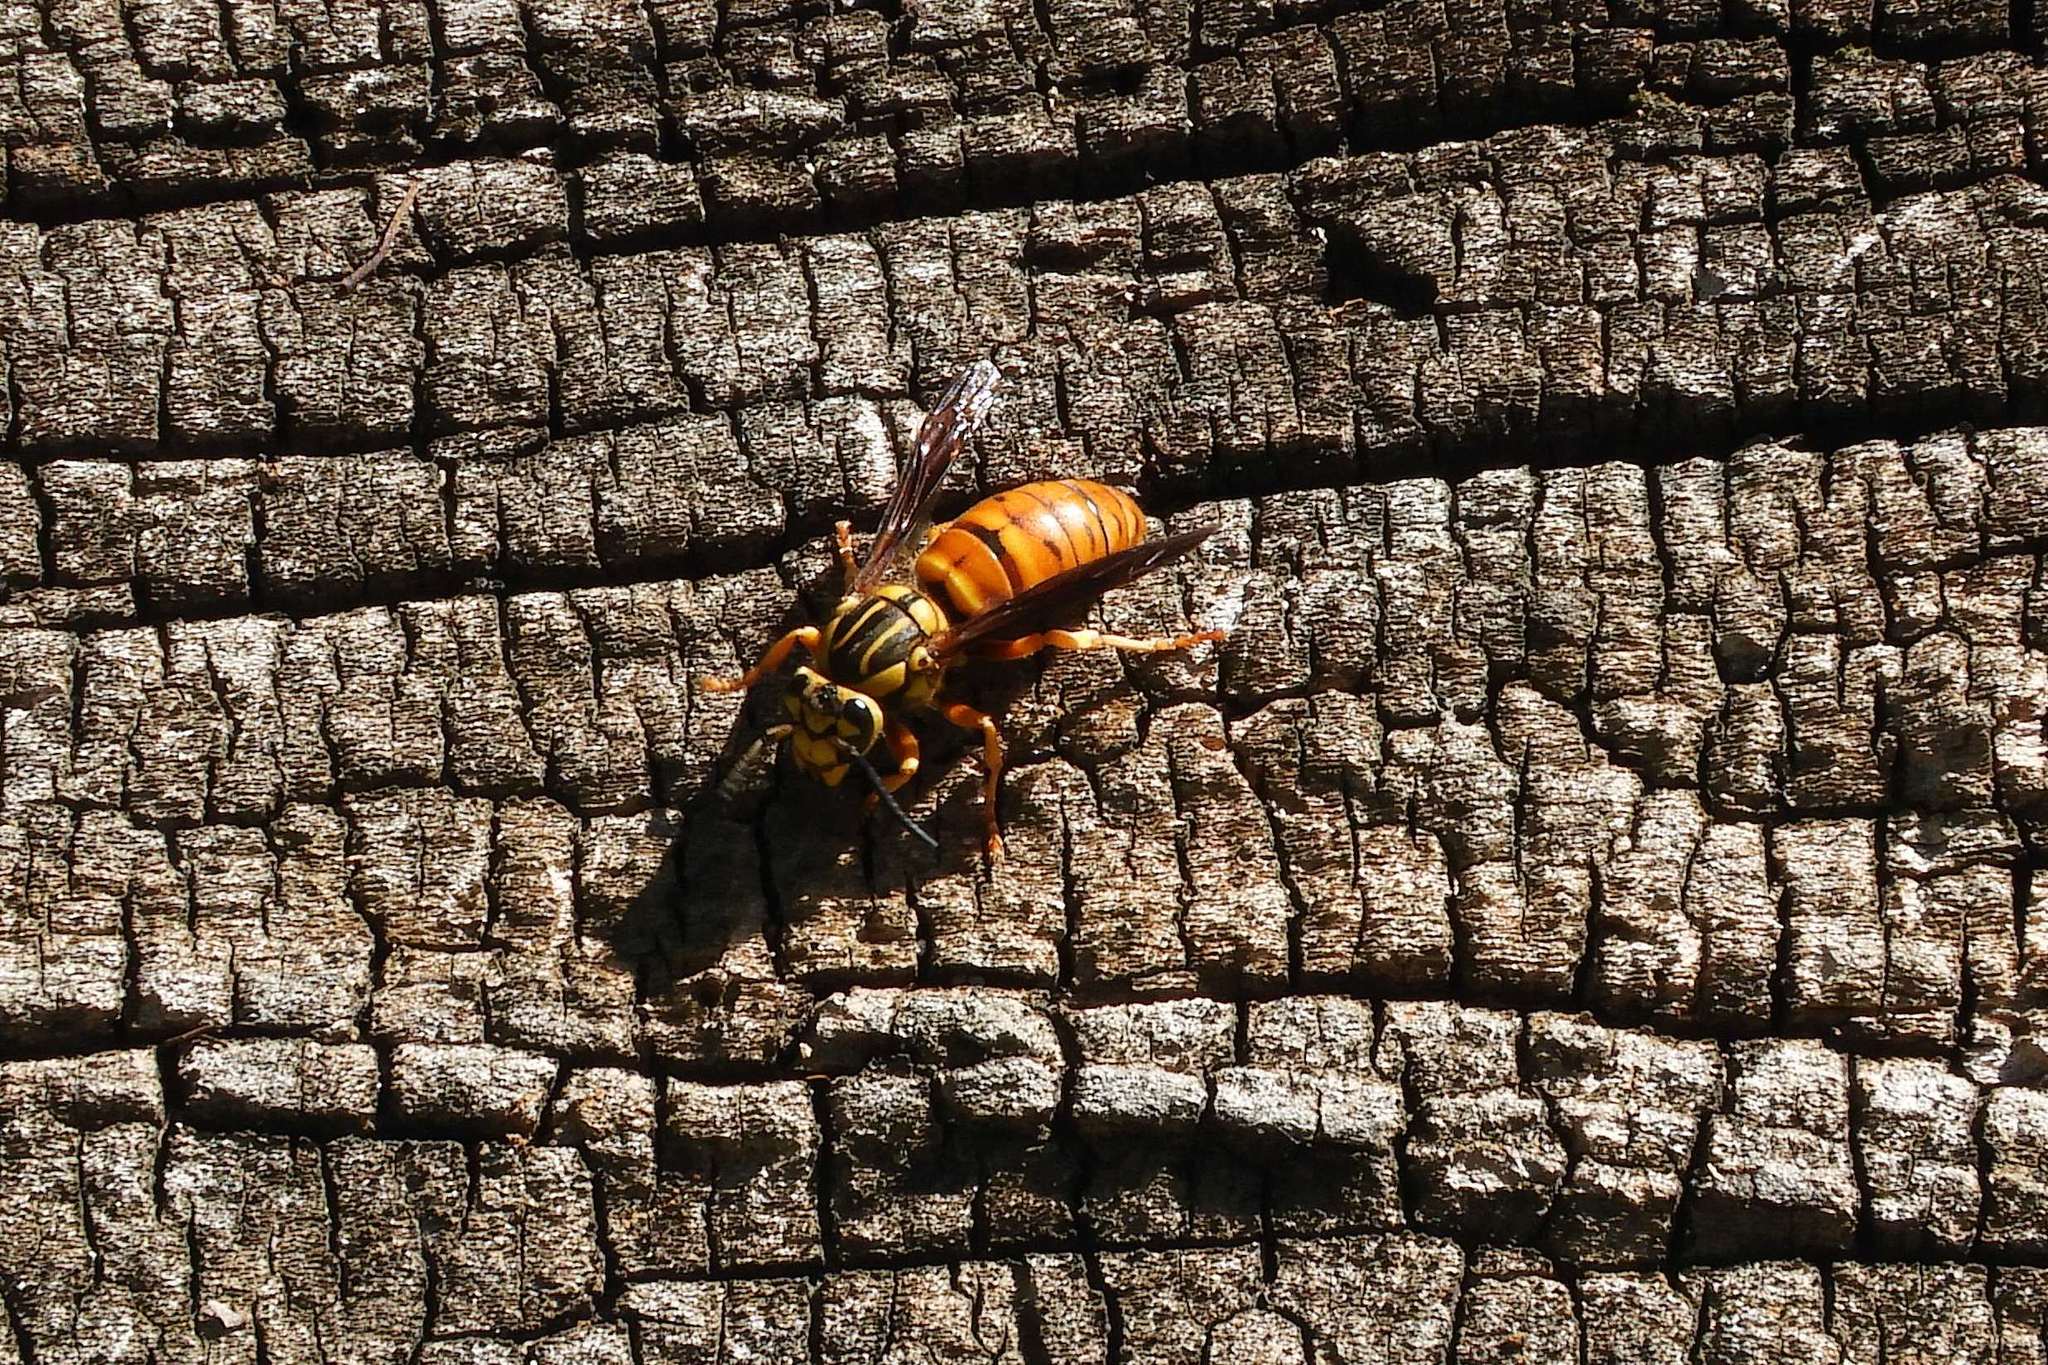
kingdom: Animalia
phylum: Arthropoda
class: Insecta
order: Hymenoptera
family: Vespidae
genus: Vespula
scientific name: Vespula squamosa
